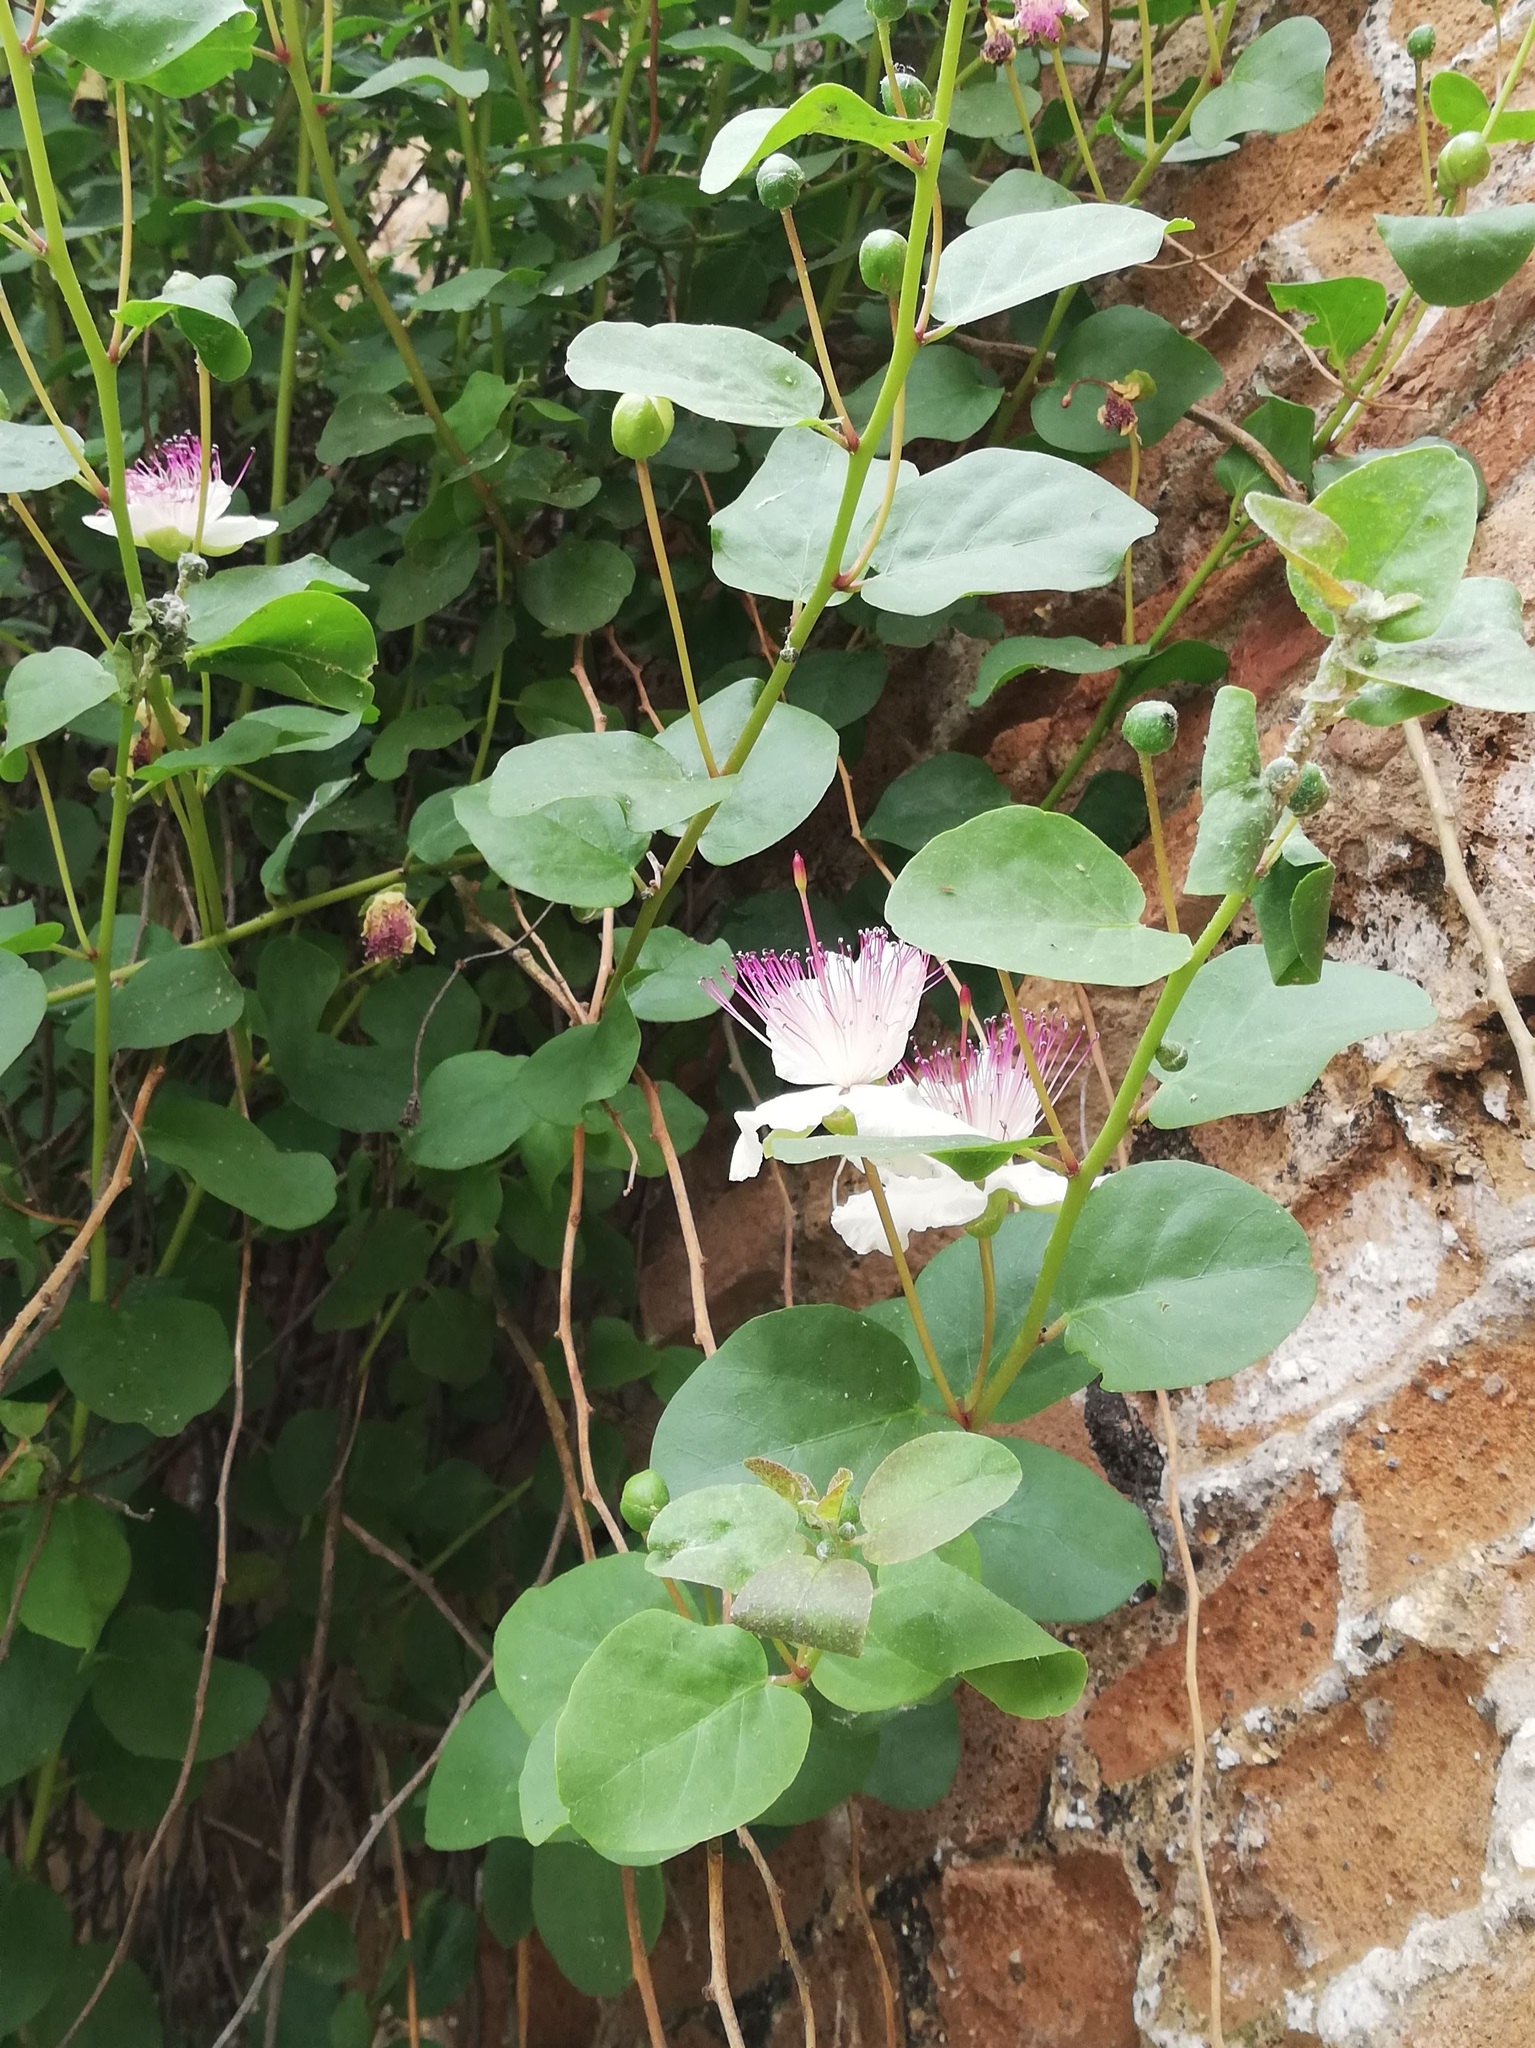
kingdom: Plantae
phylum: Tracheophyta
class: Magnoliopsida
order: Brassicales
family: Capparaceae
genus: Capparis
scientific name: Capparis orientalis
